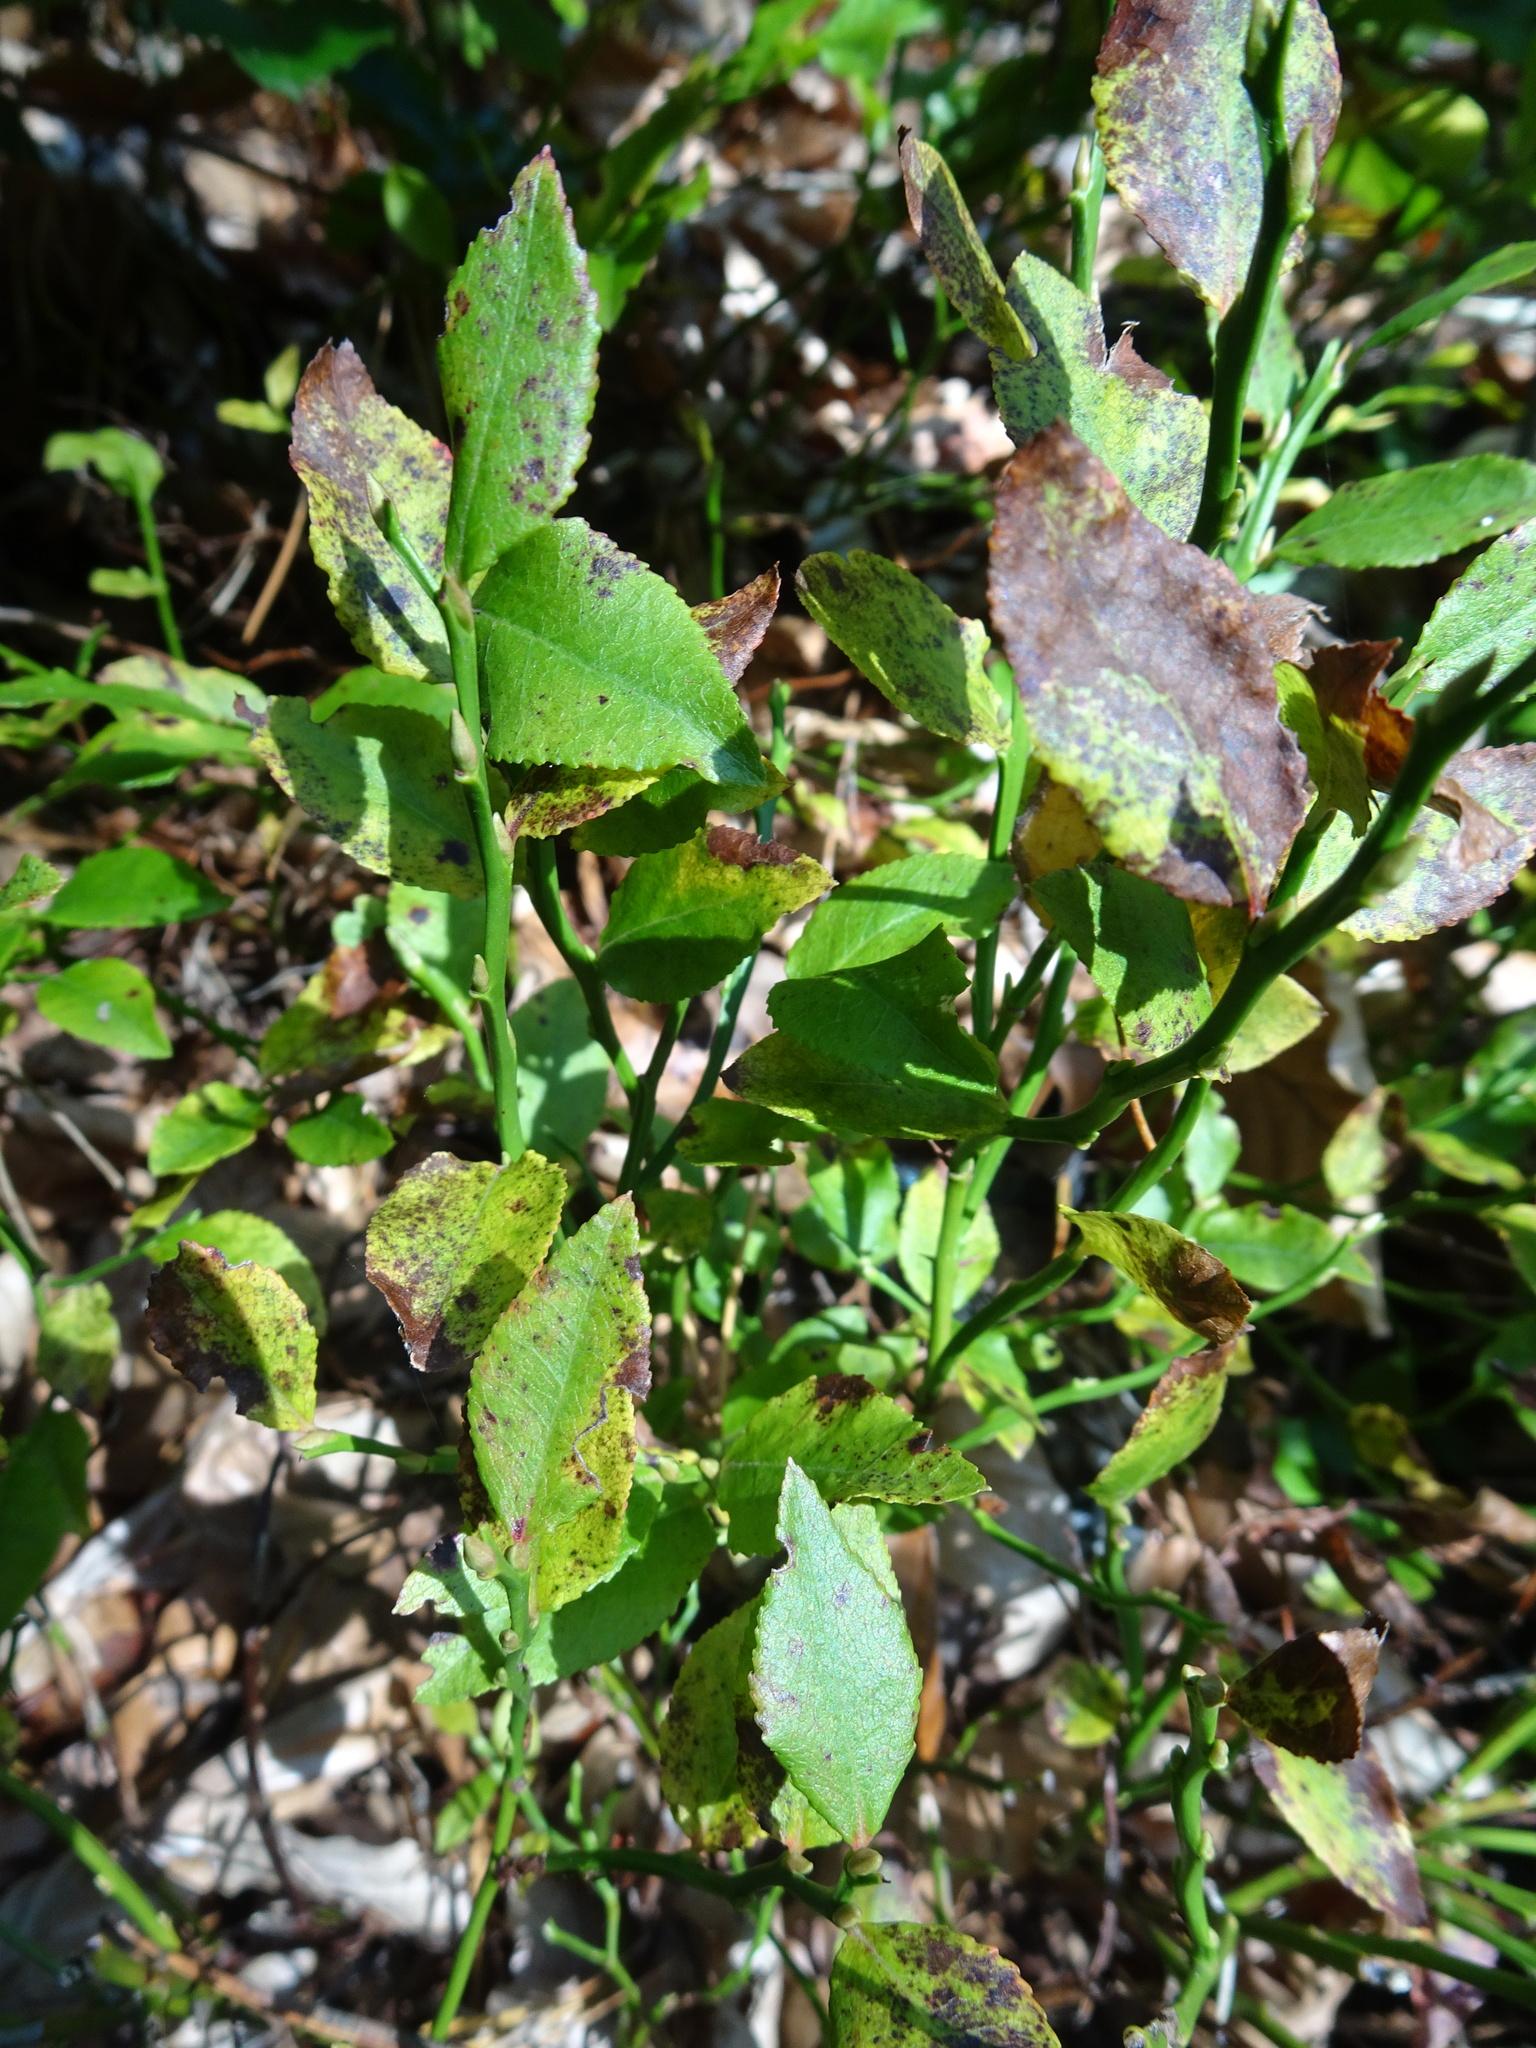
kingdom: Plantae
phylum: Tracheophyta
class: Magnoliopsida
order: Ericales
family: Ericaceae
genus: Vaccinium
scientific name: Vaccinium myrtillus
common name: Bilberry
